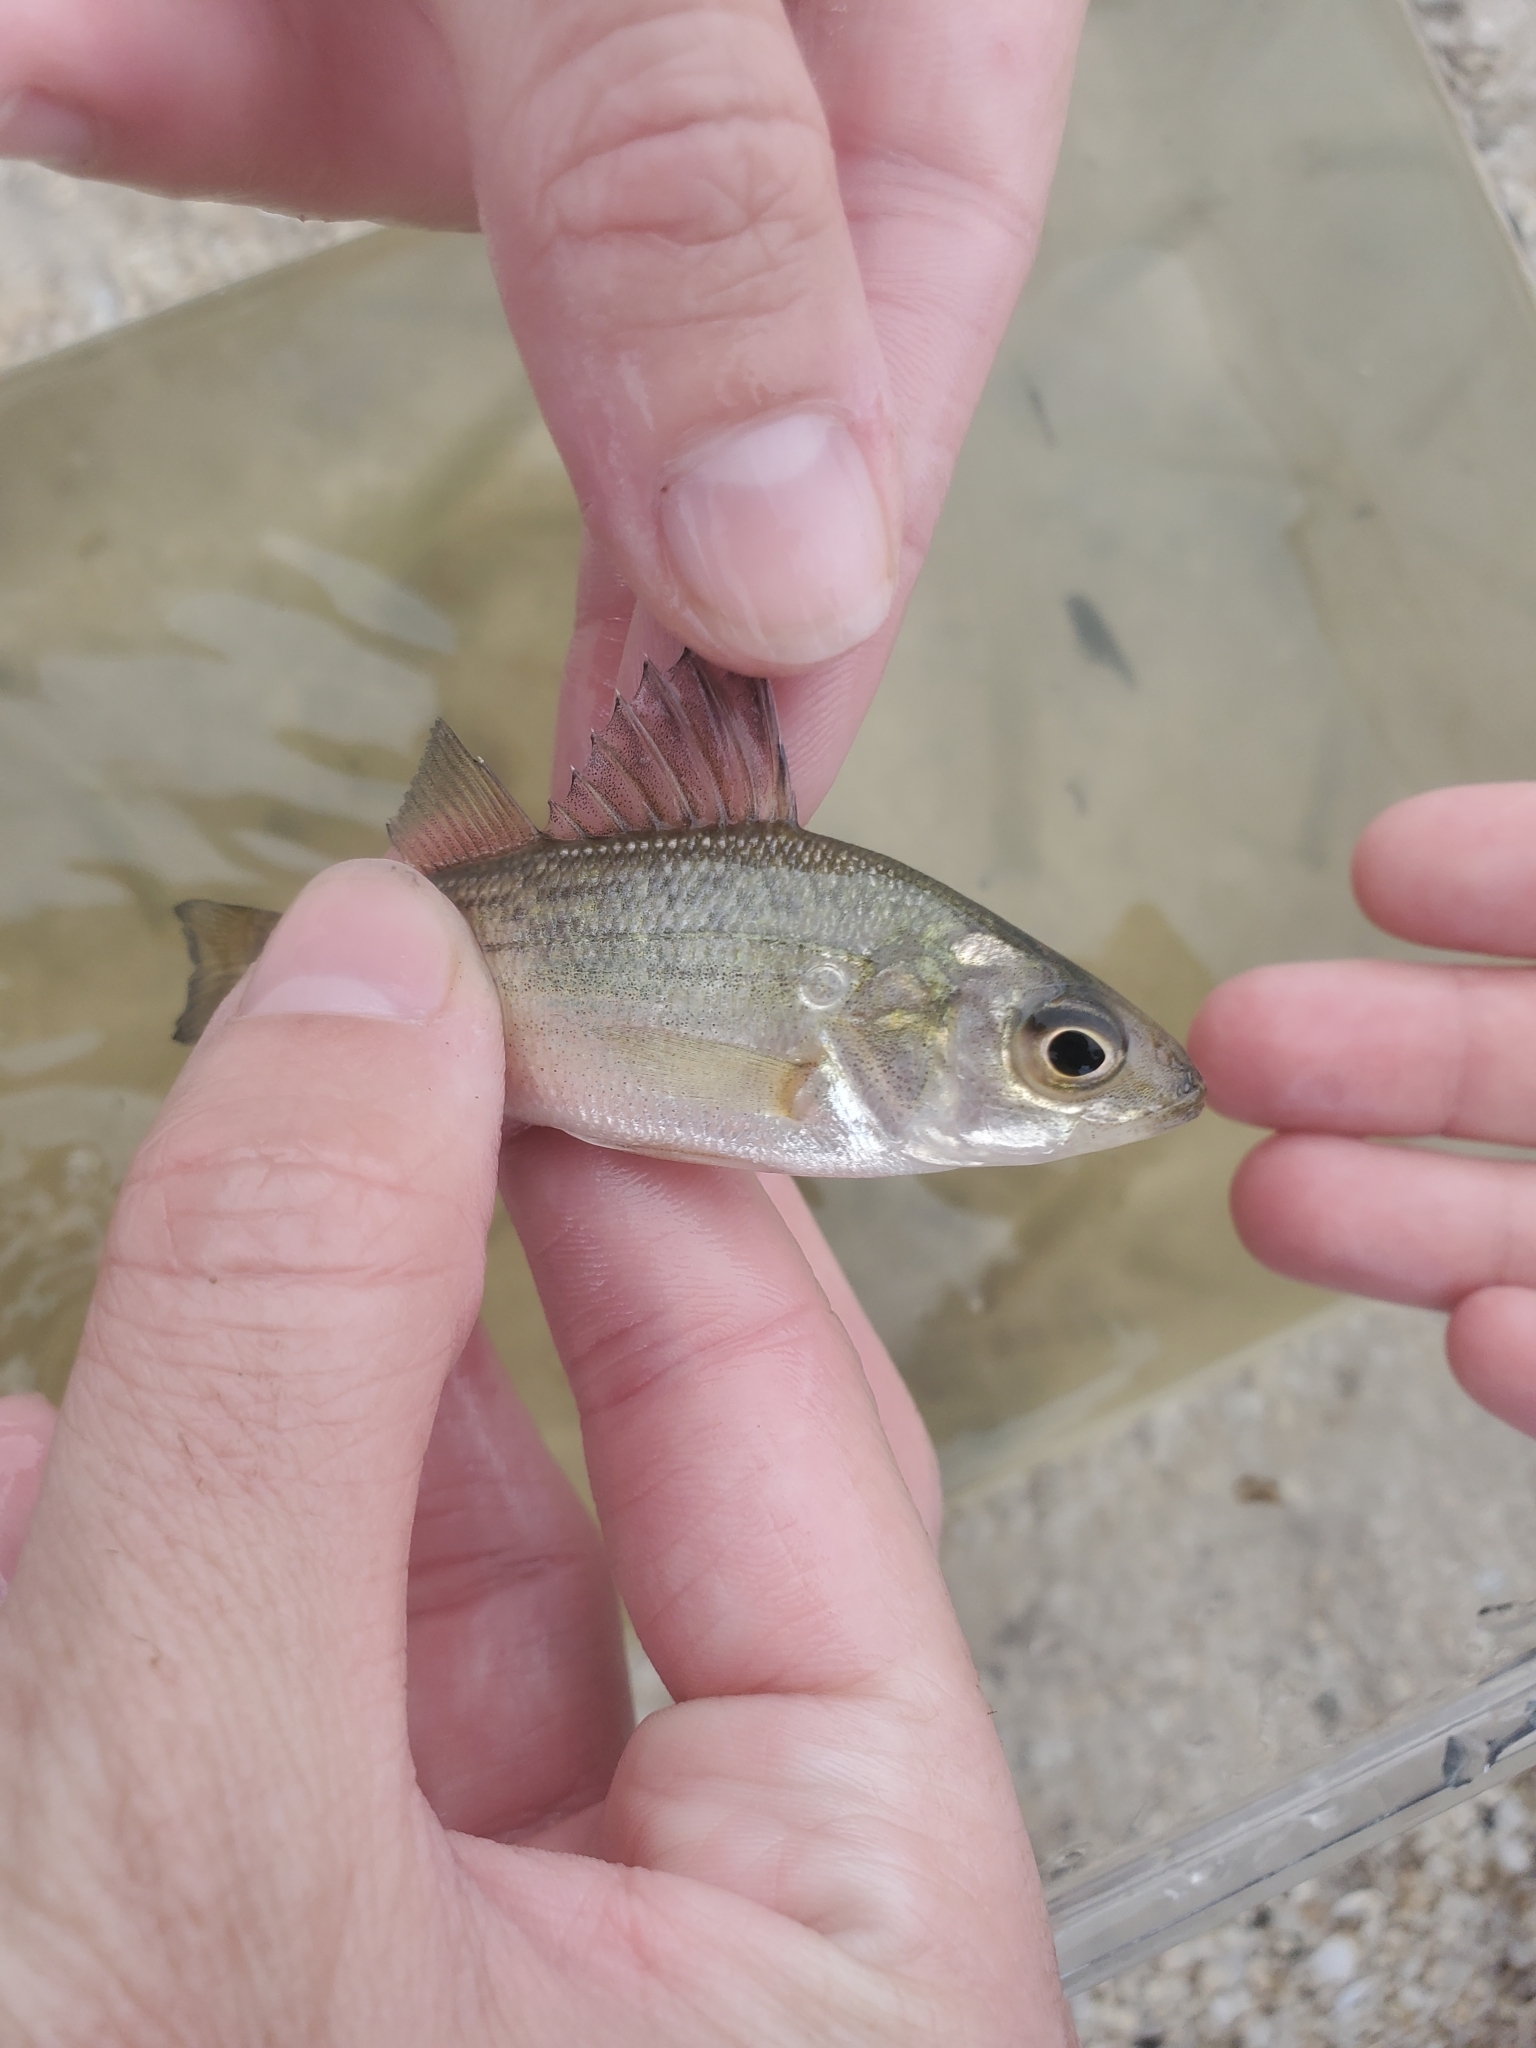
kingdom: Animalia
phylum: Chordata
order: Perciformes
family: Moronidae
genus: Morone
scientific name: Morone americana
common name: White perch
